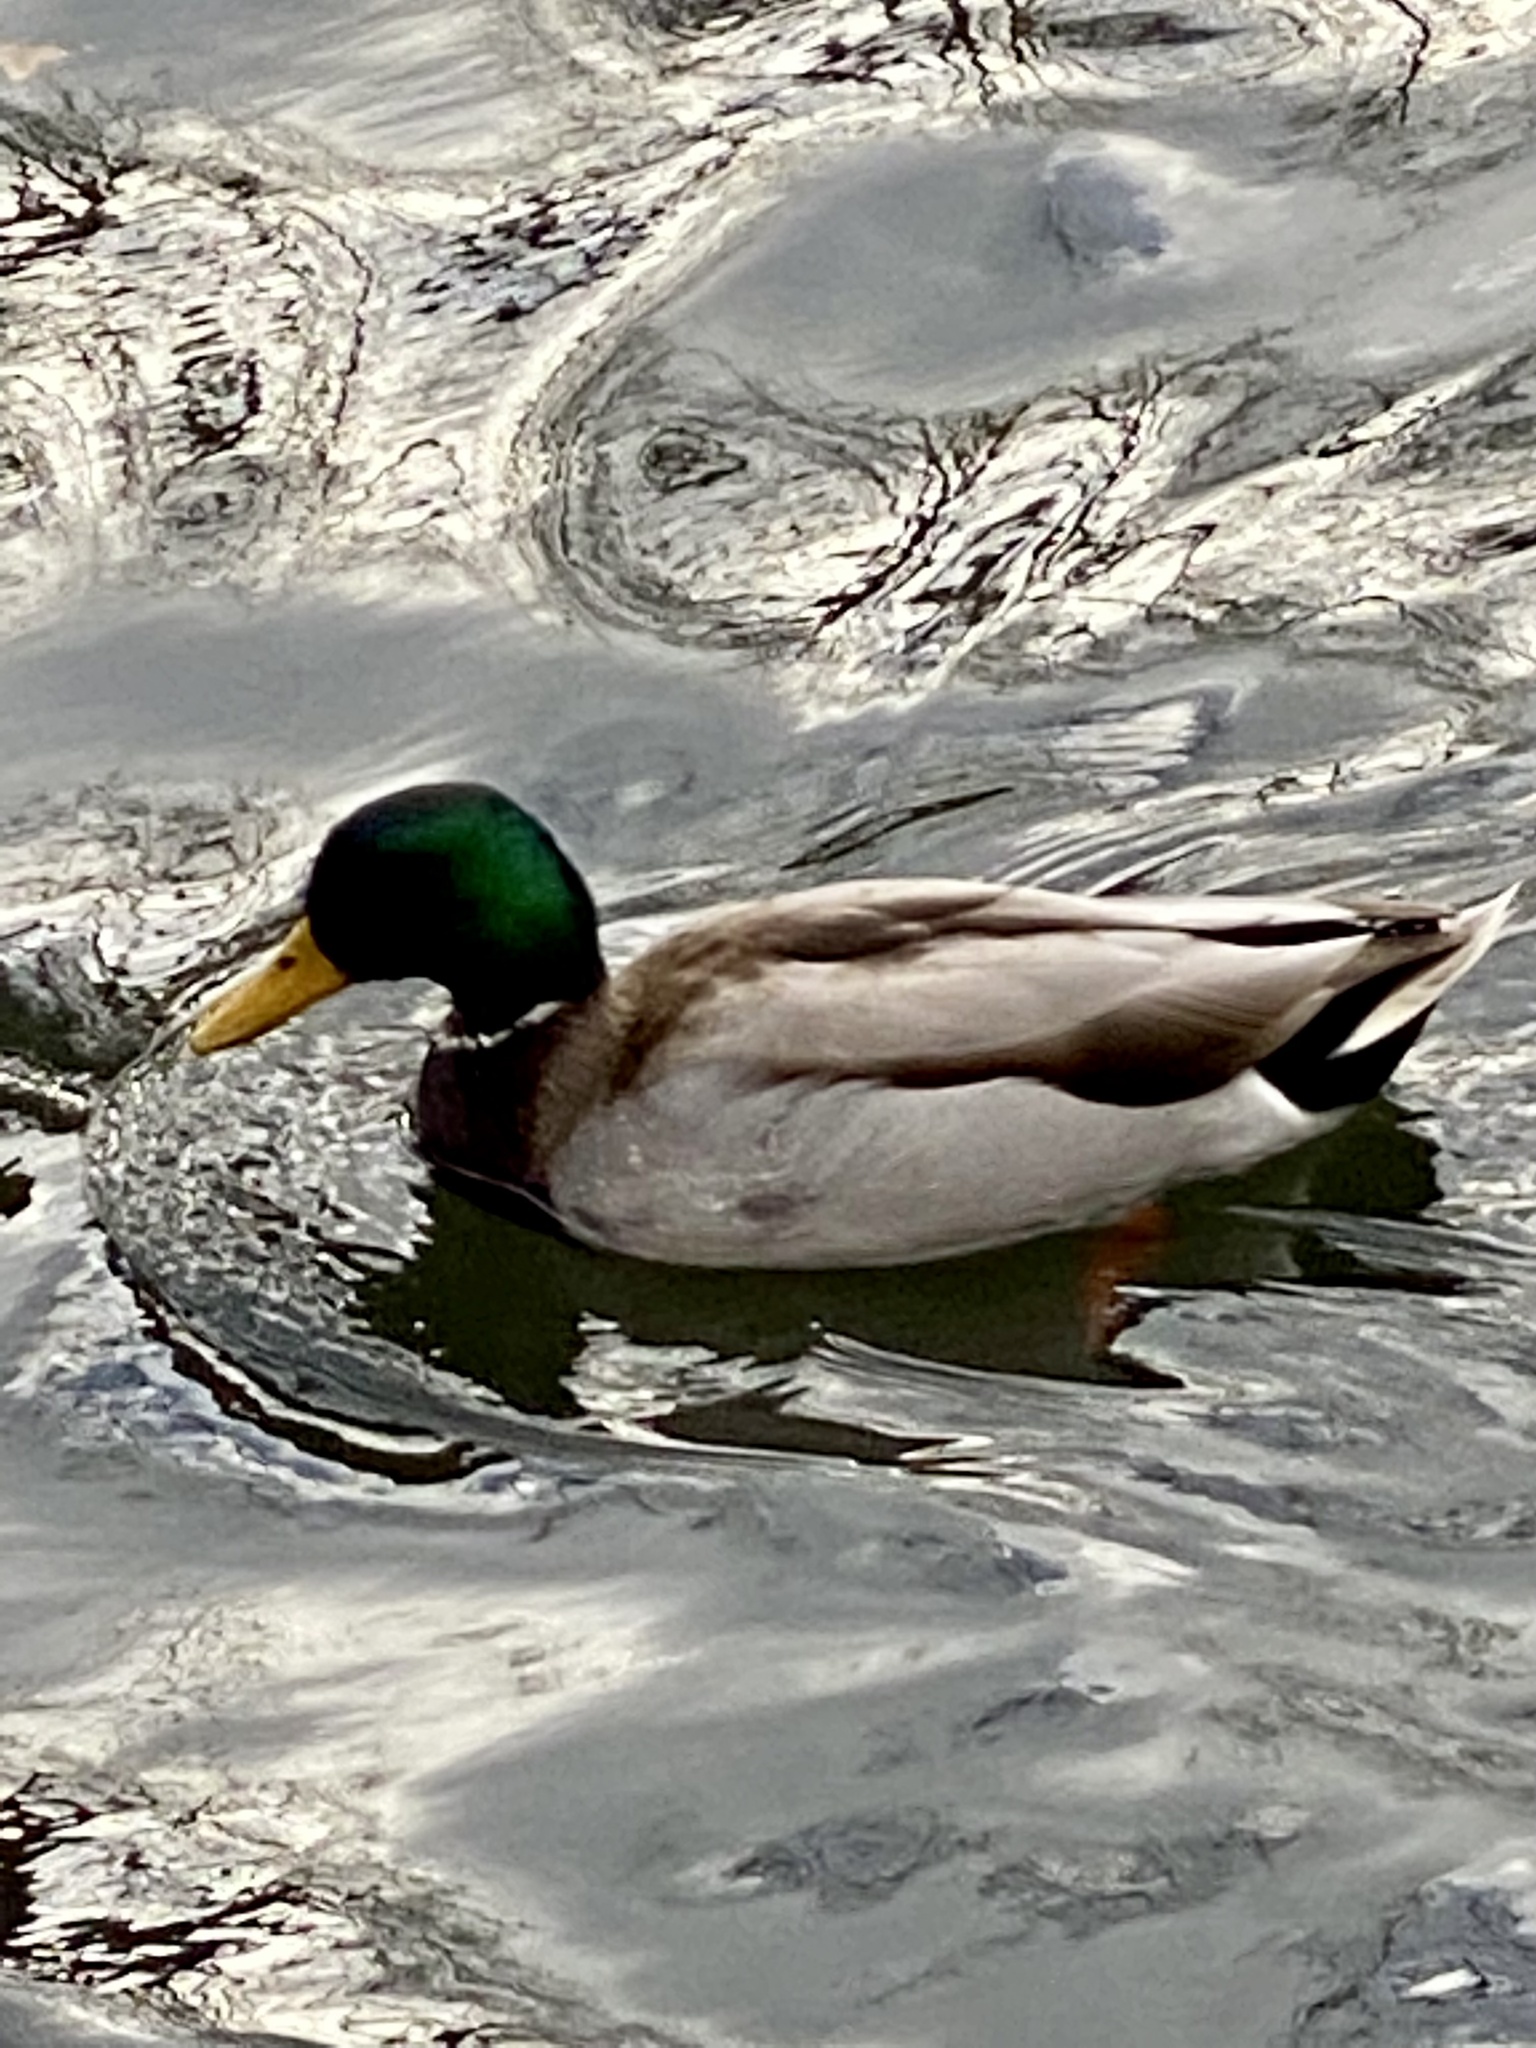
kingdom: Animalia
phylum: Chordata
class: Aves
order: Anseriformes
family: Anatidae
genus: Anas
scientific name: Anas platyrhynchos
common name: Mallard
